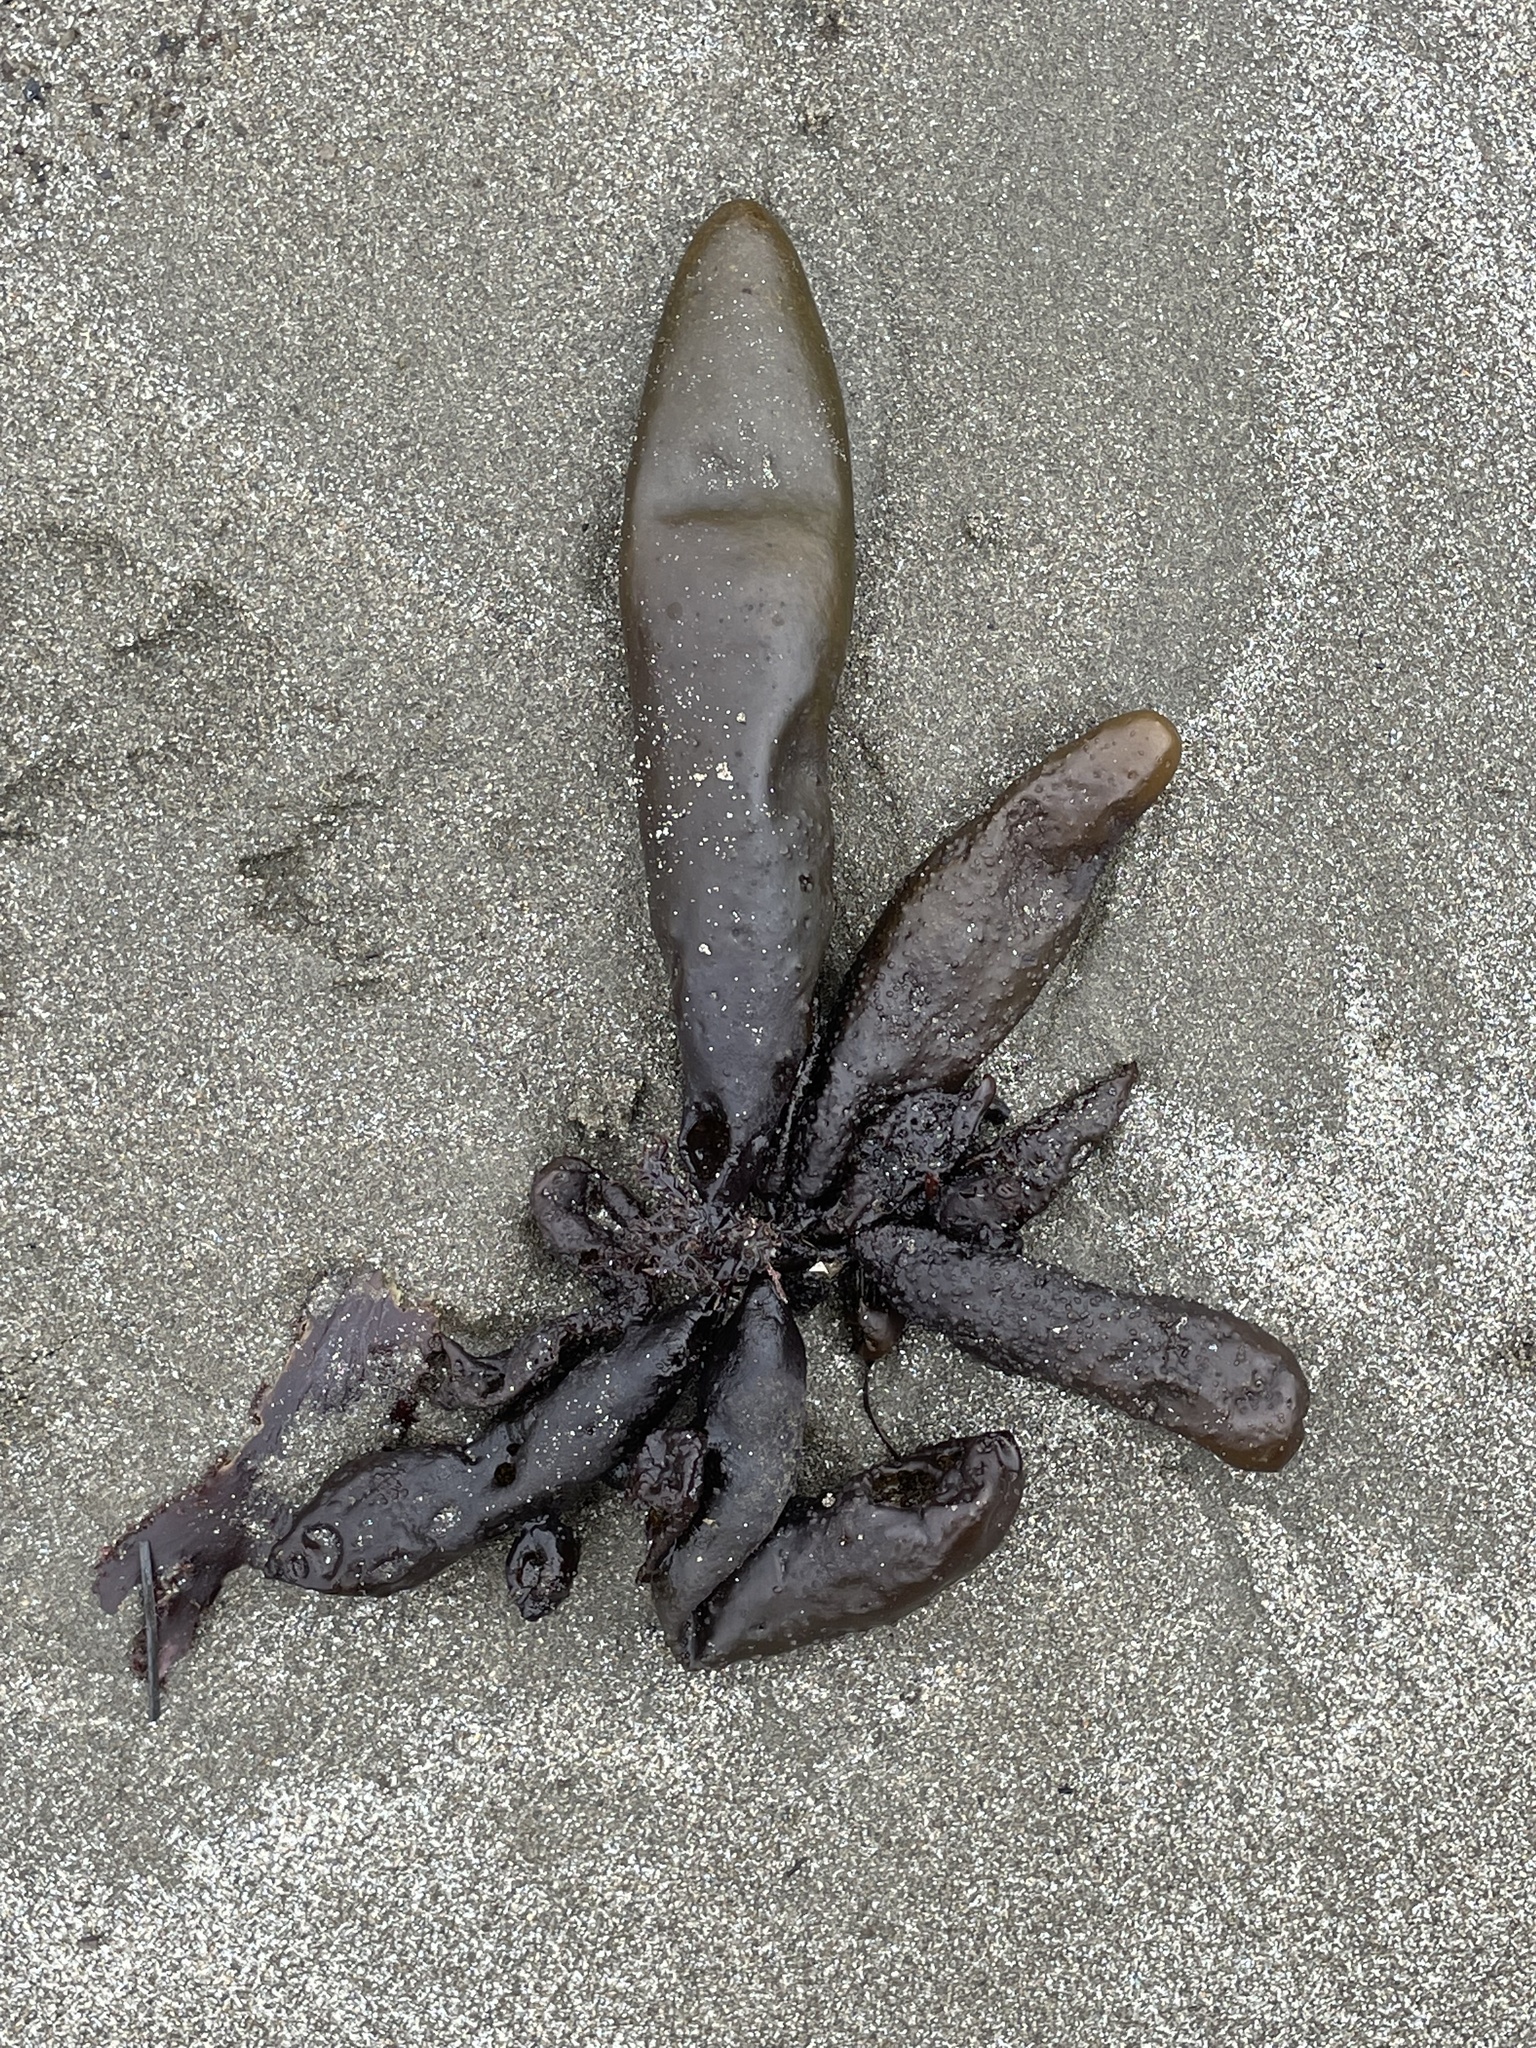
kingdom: Plantae
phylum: Rhodophyta
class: Florideophyceae
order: Palmariales
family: Palmariaceae
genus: Halosaccion
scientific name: Halosaccion glandiforme
